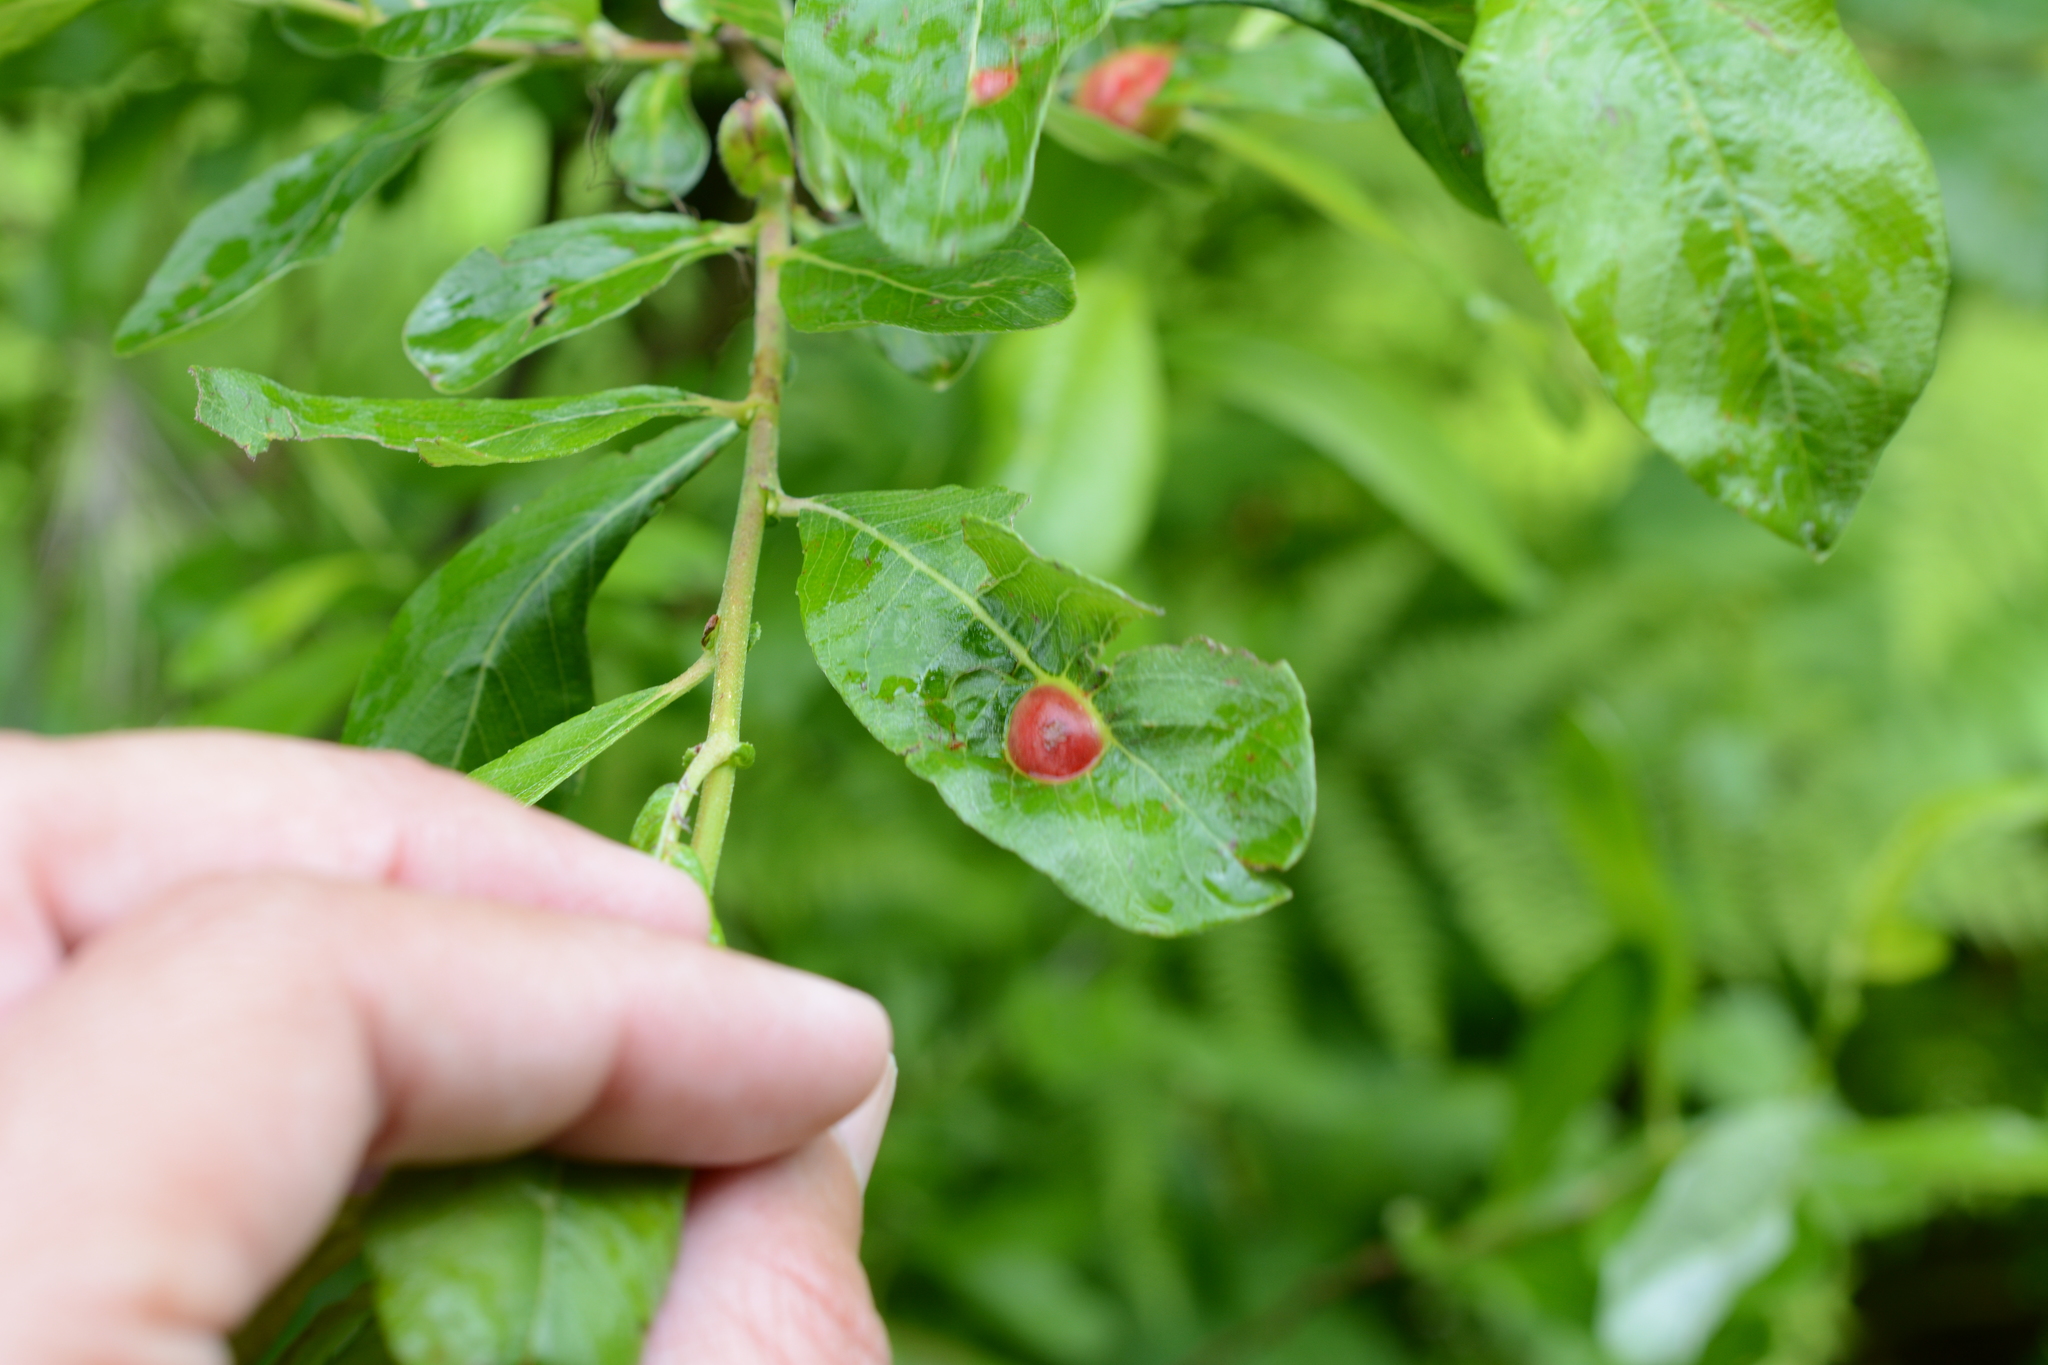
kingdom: Animalia
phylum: Arthropoda
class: Insecta
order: Hymenoptera
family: Tenthredinidae
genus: Euura
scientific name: Euura
